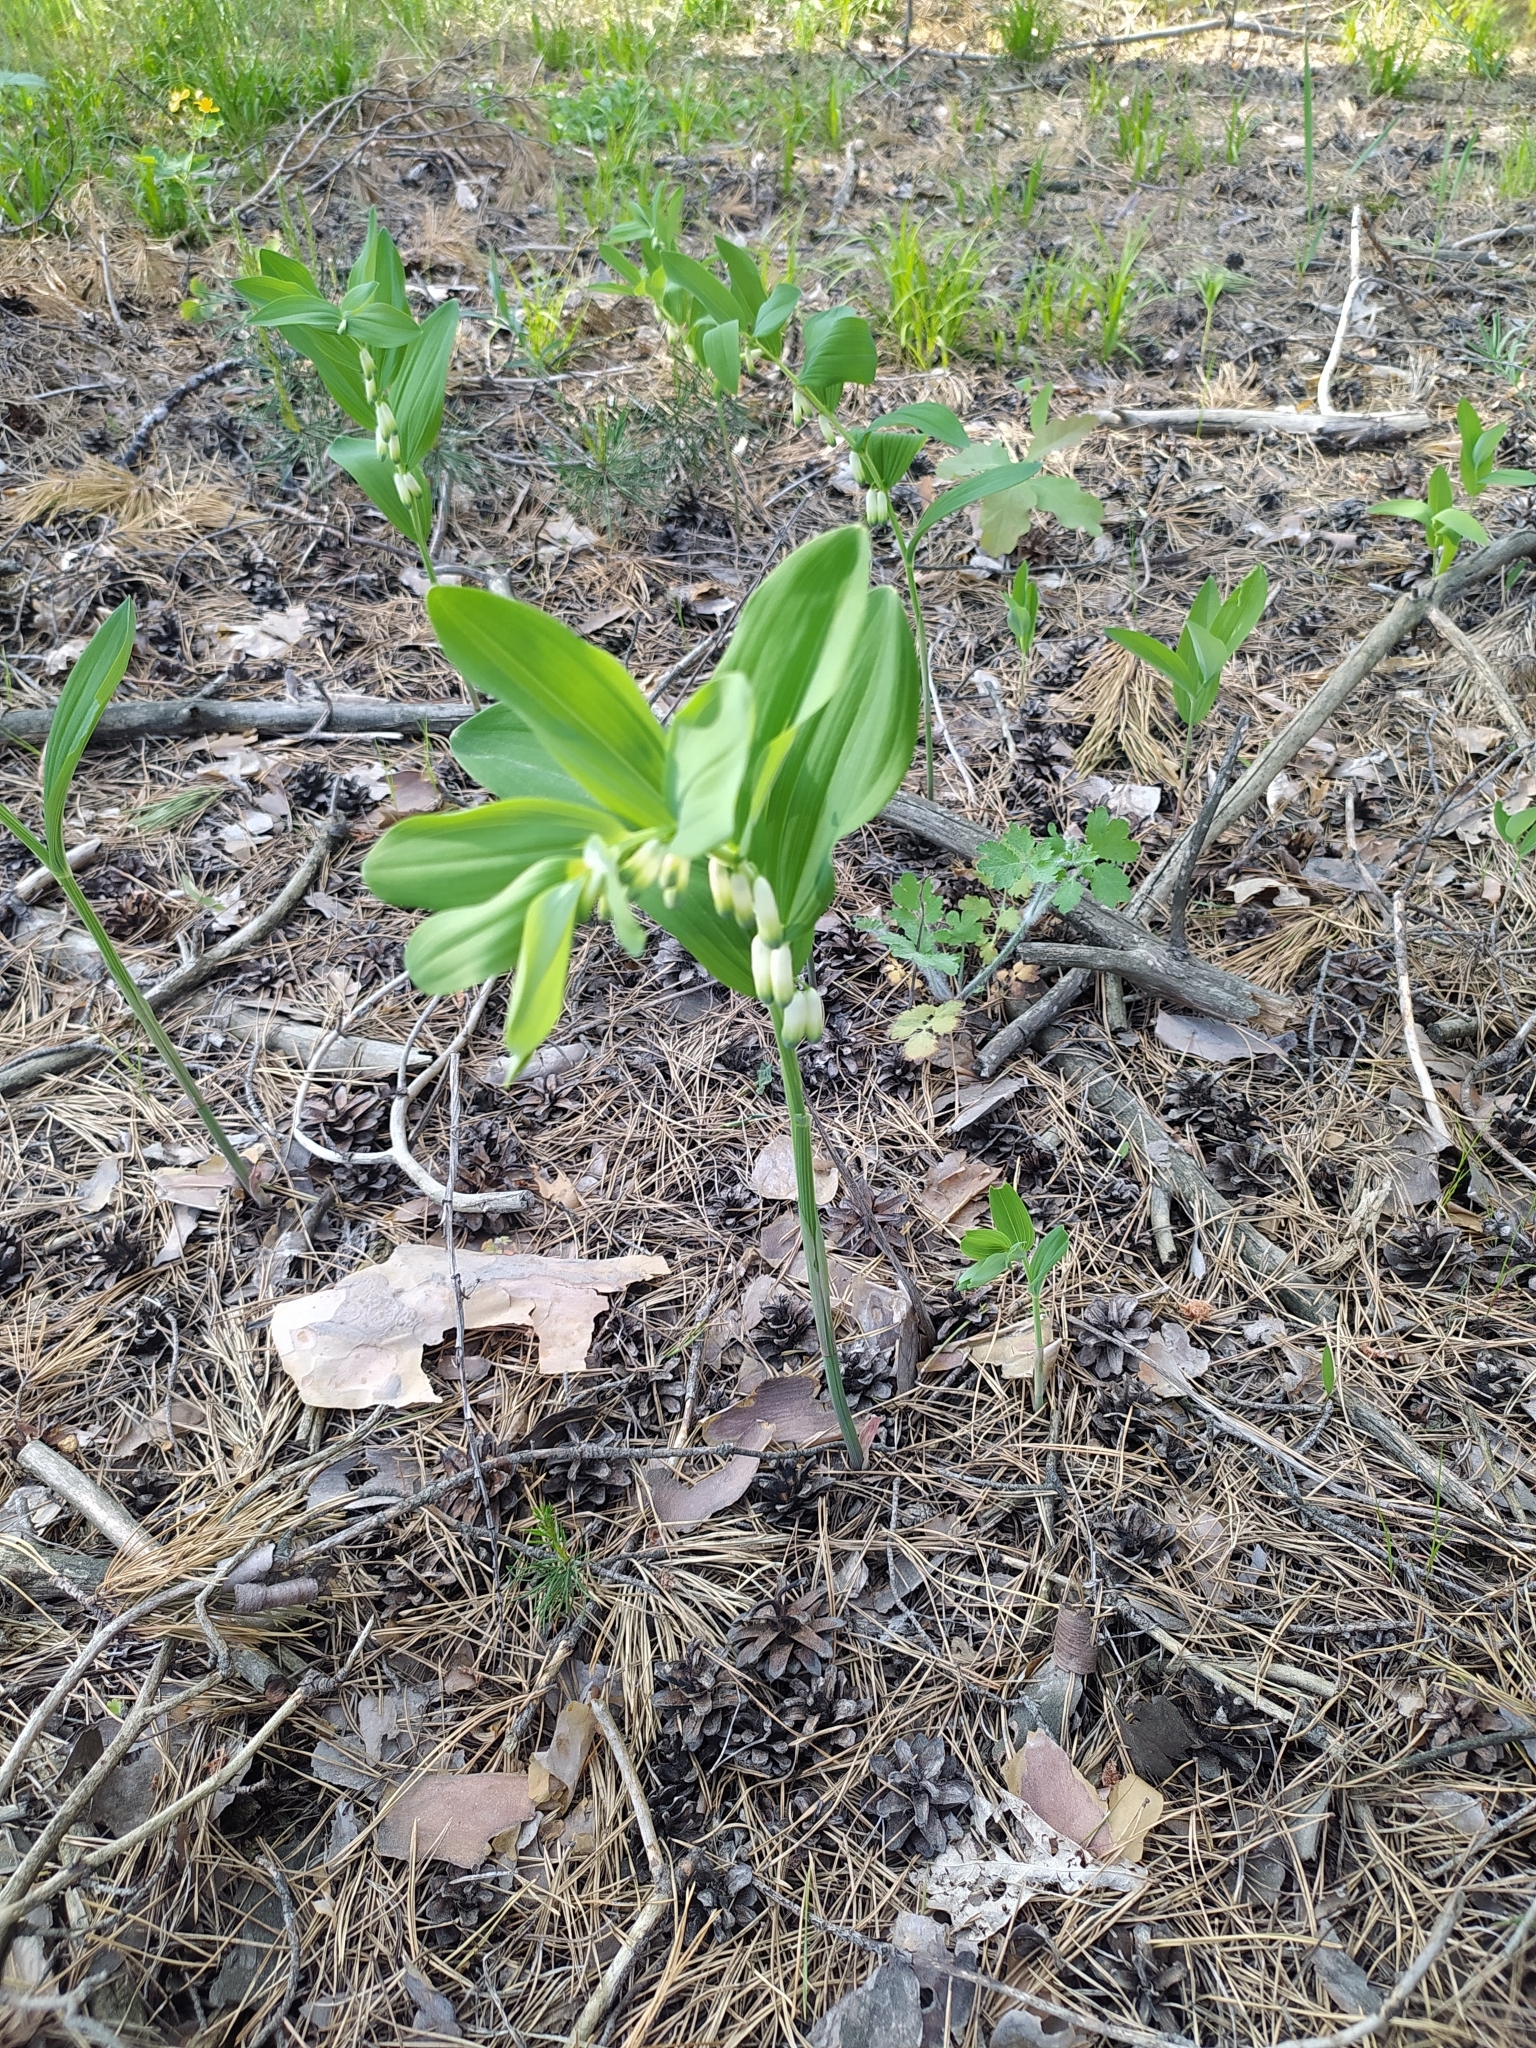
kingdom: Plantae
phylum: Tracheophyta
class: Liliopsida
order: Asparagales
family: Asparagaceae
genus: Polygonatum
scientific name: Polygonatum odoratum
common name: Angular solomon's-seal
